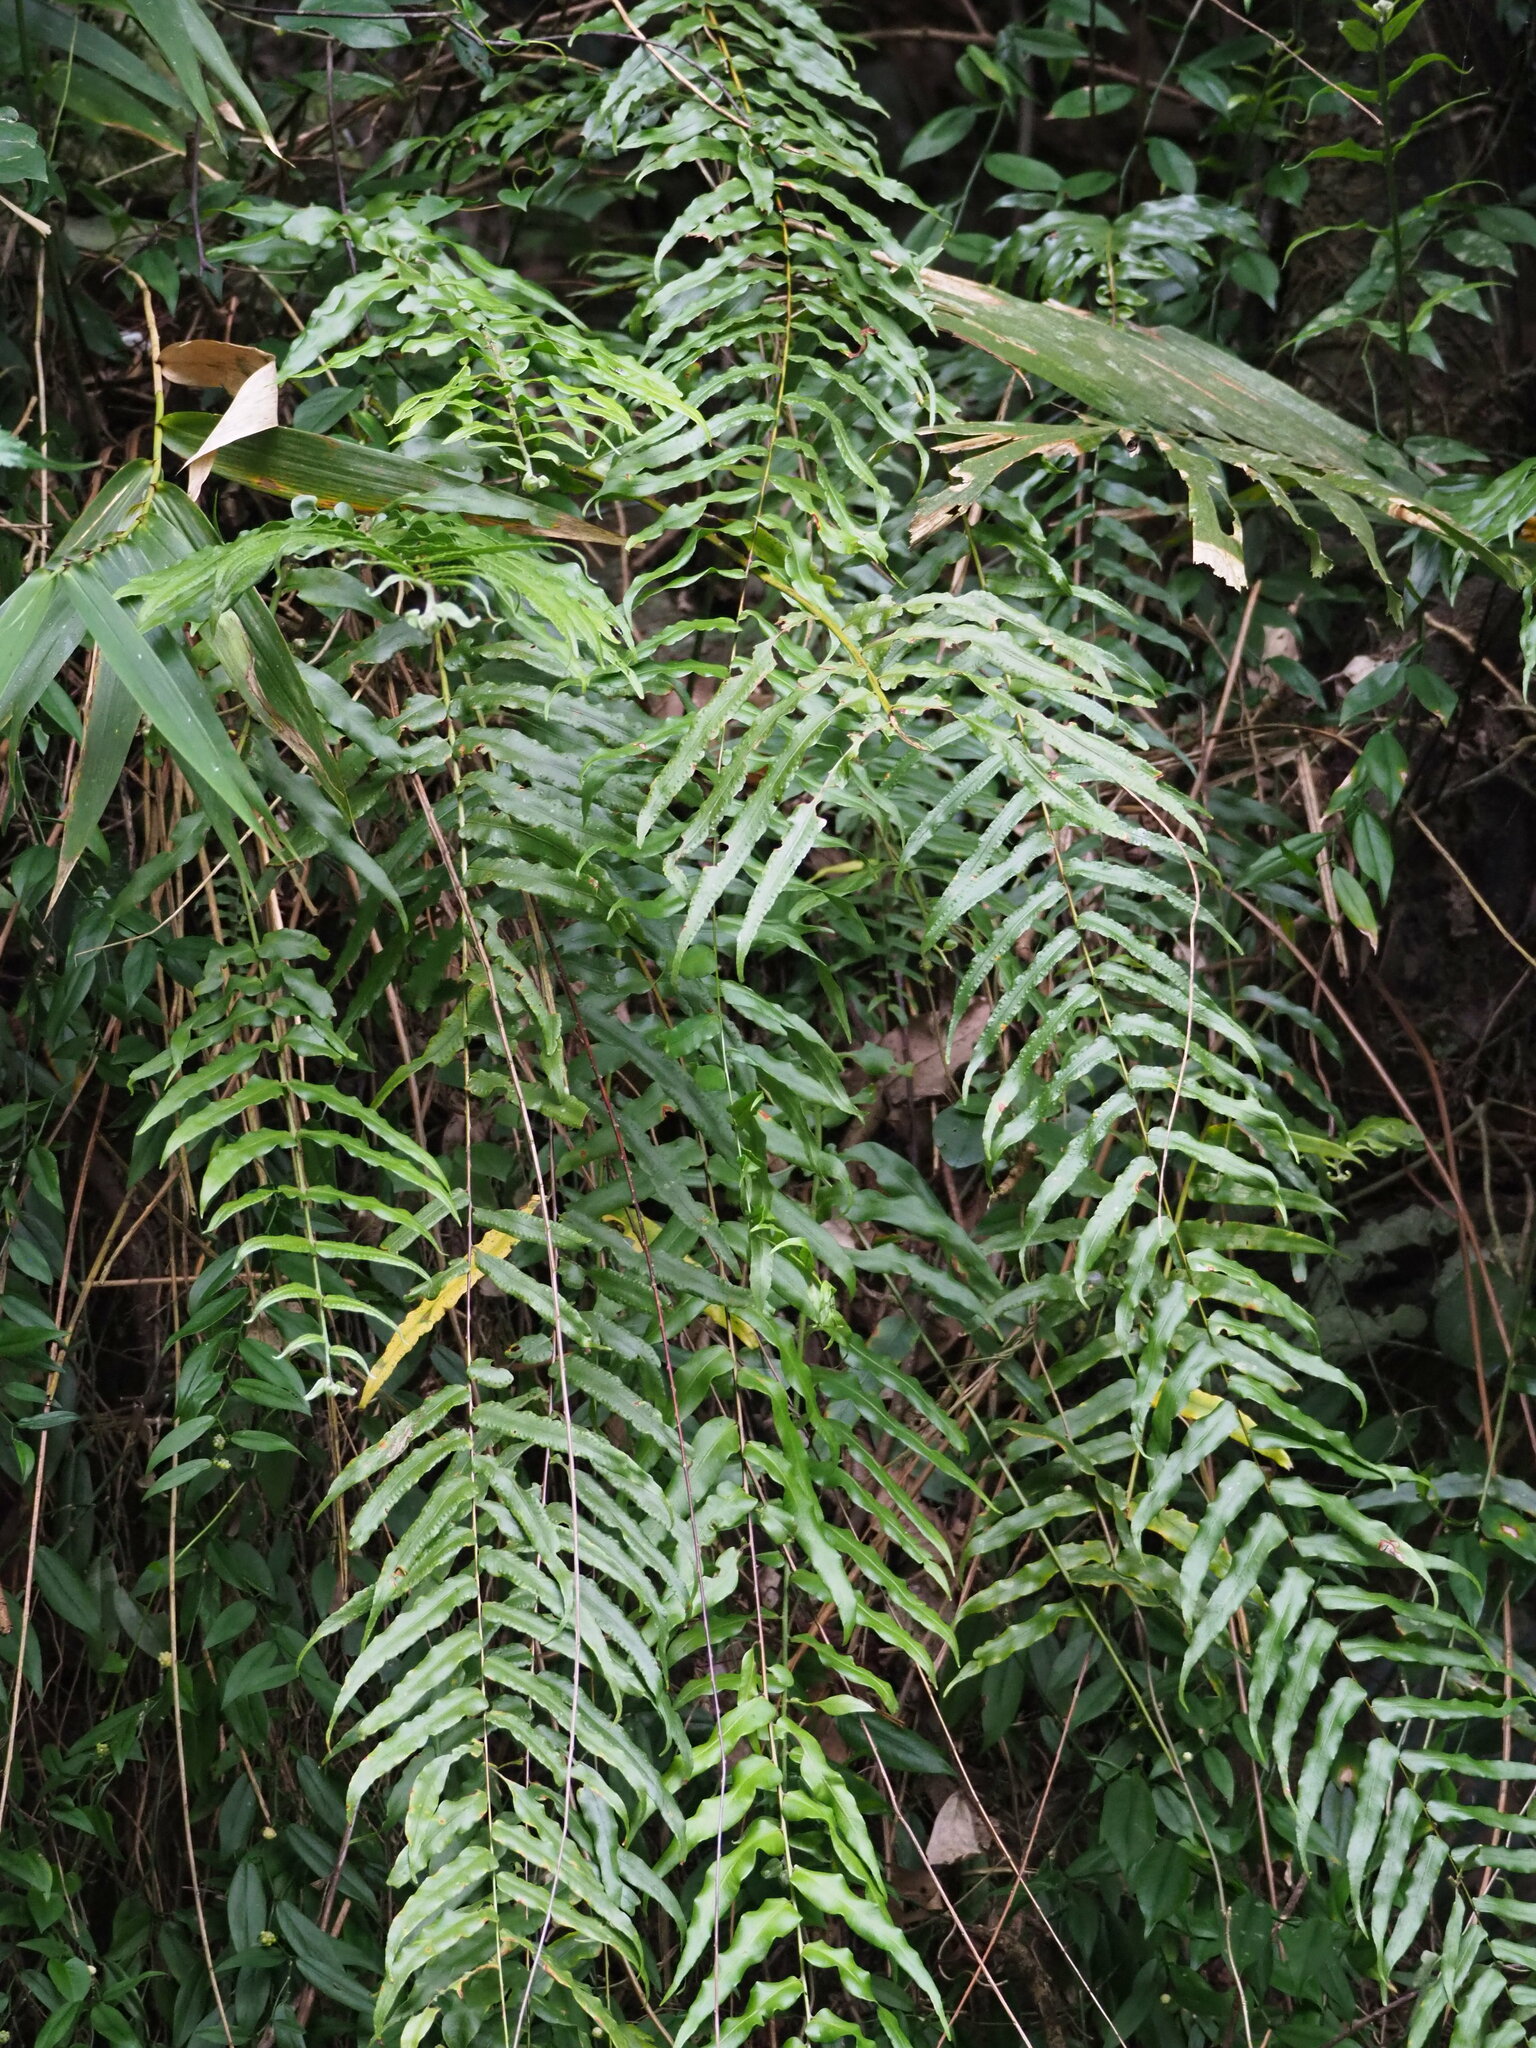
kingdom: Plantae
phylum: Tracheophyta
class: Polypodiopsida
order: Polypodiales
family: Nephrolepidaceae
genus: Nephrolepis
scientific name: Nephrolepis biserrata
